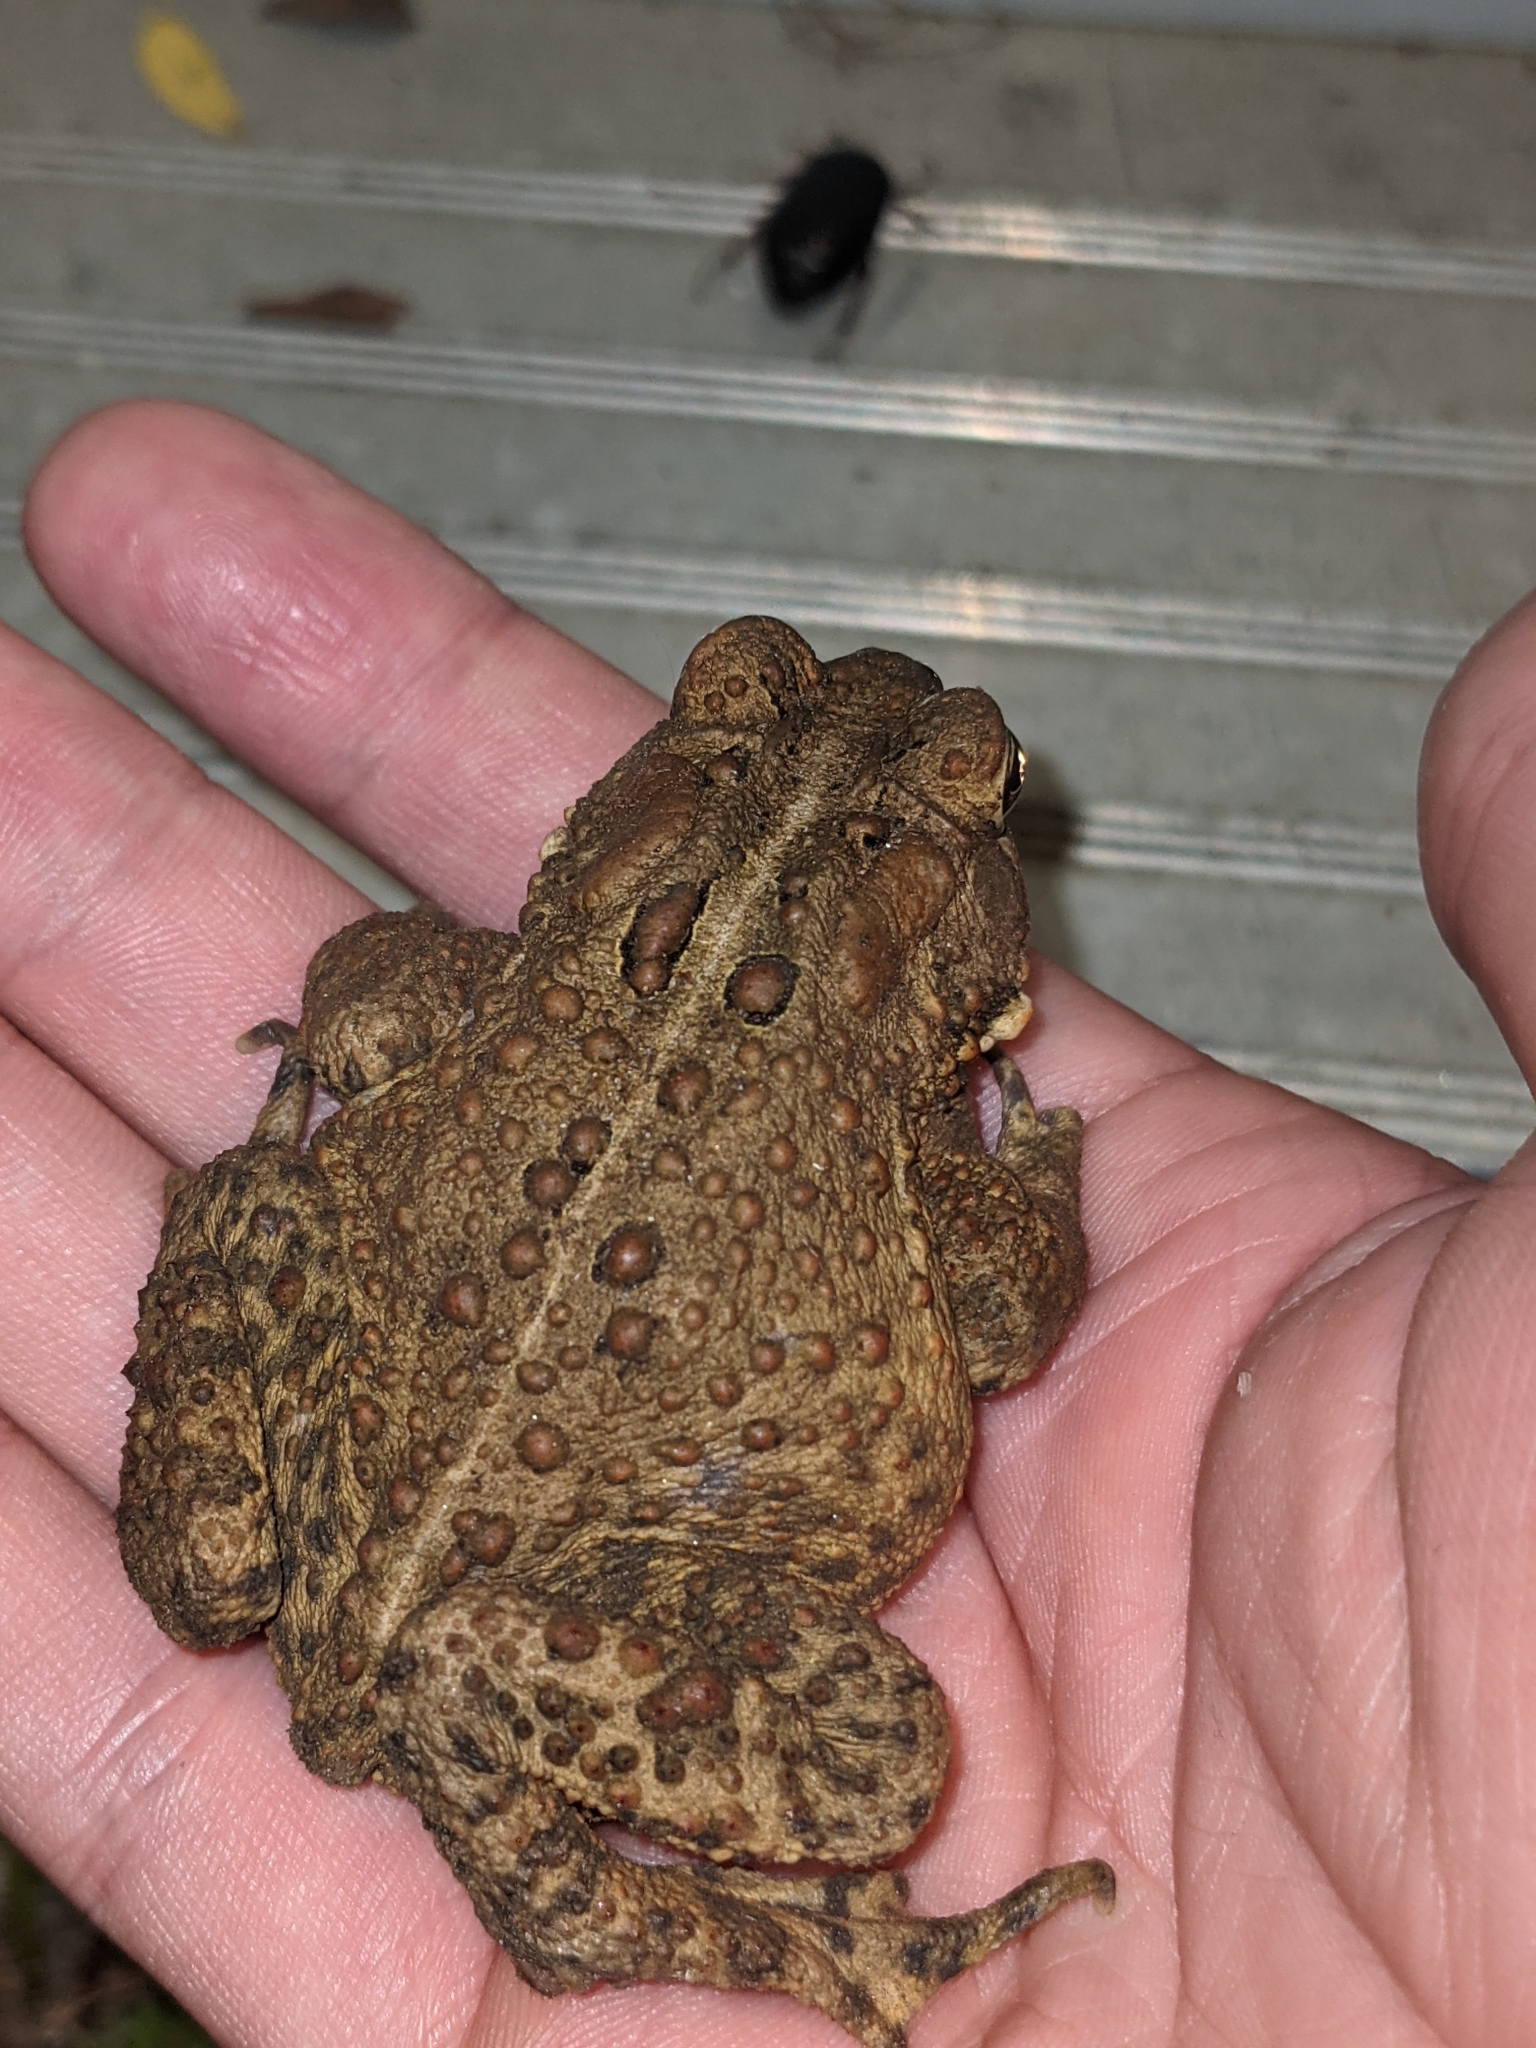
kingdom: Animalia
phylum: Chordata
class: Amphibia
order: Anura
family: Bufonidae
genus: Anaxyrus
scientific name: Anaxyrus americanus
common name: American toad
